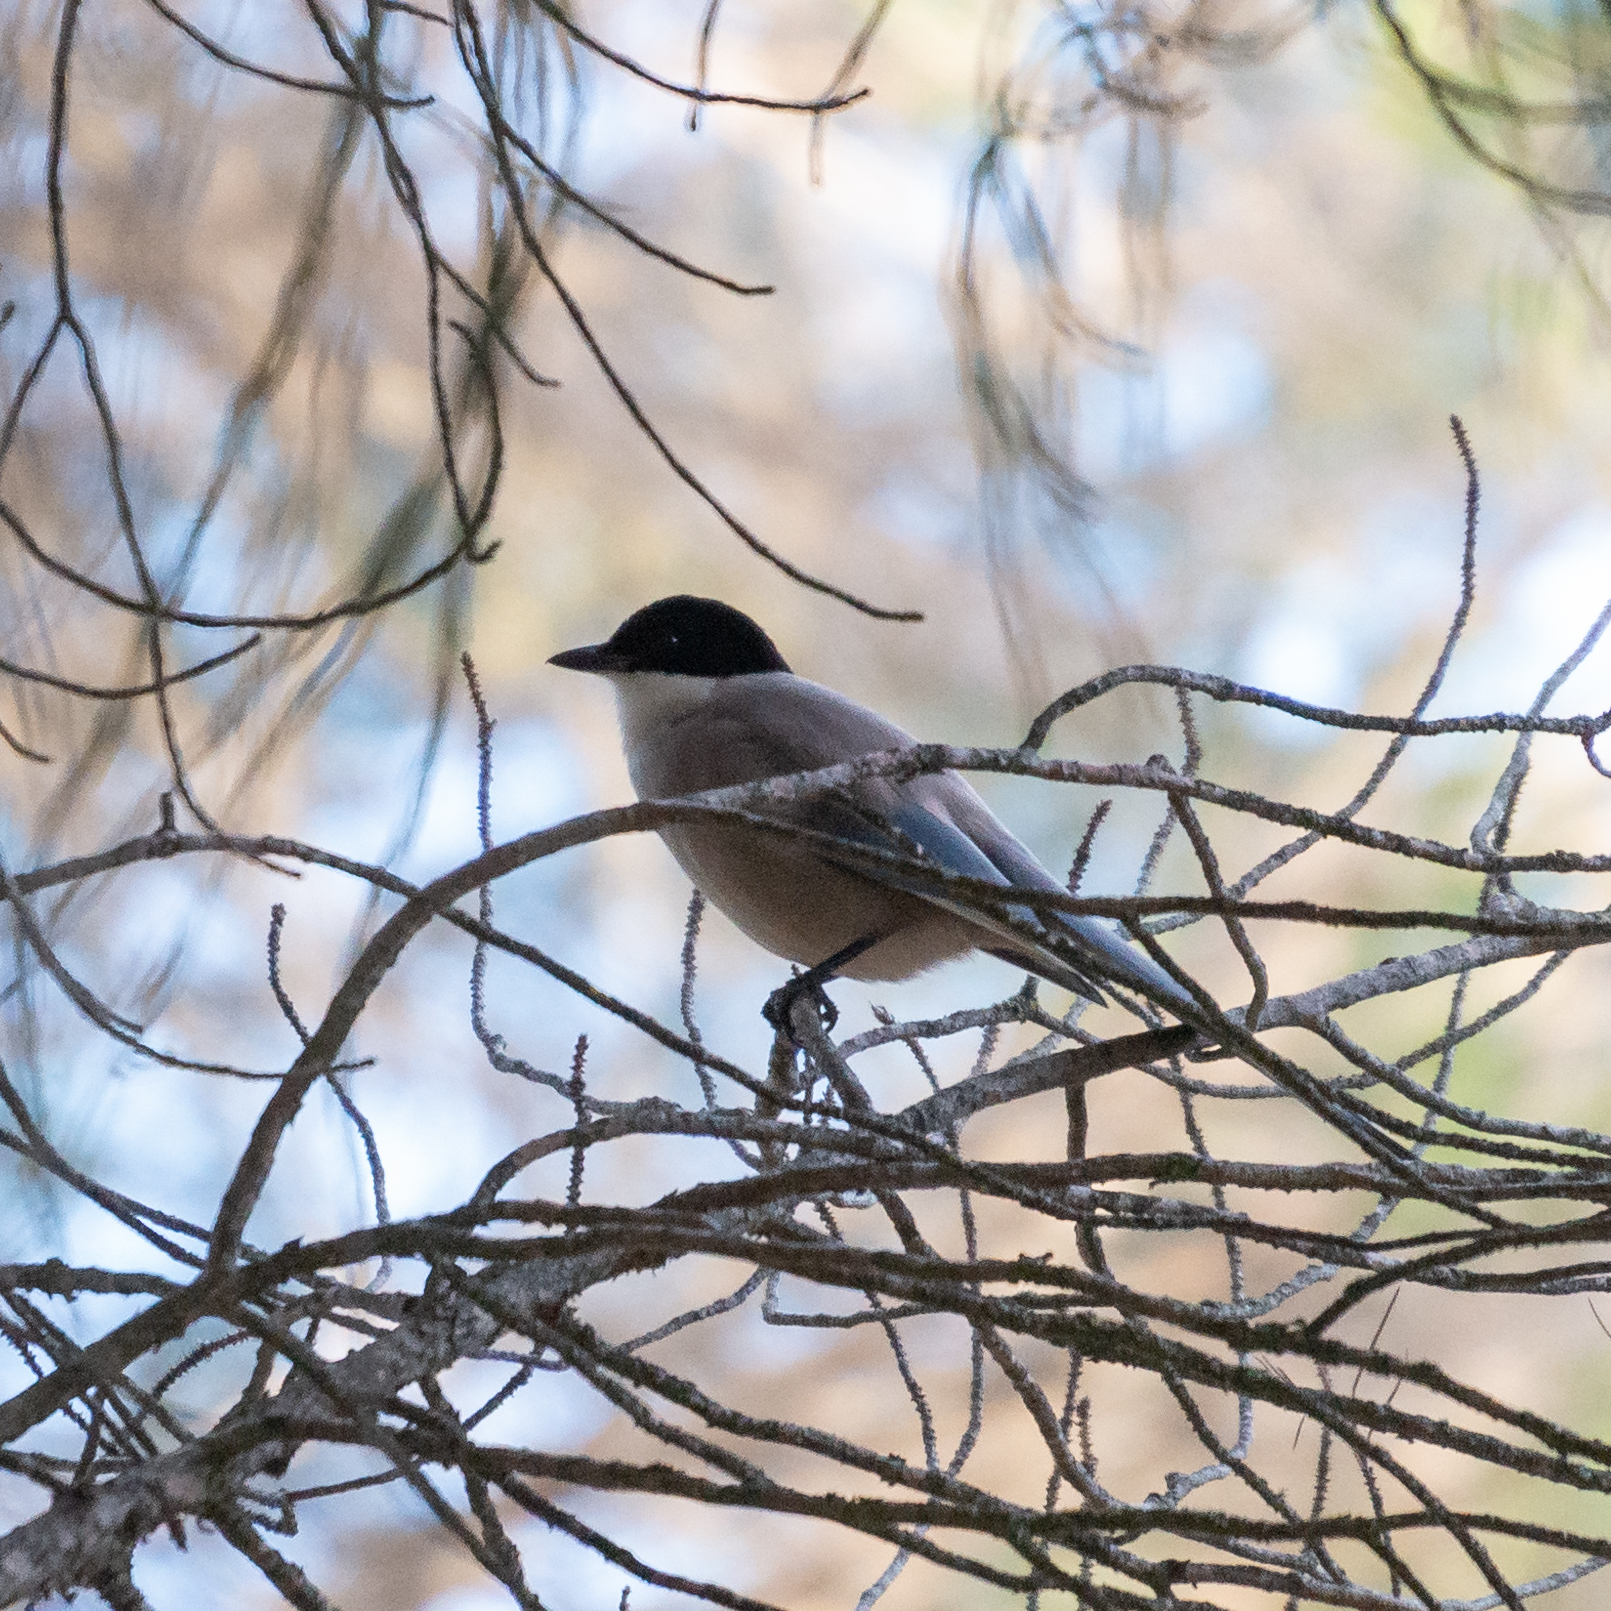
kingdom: Animalia
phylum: Chordata
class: Aves
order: Passeriformes
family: Corvidae
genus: Cyanopica
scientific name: Cyanopica cooki
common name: Iberian magpie
